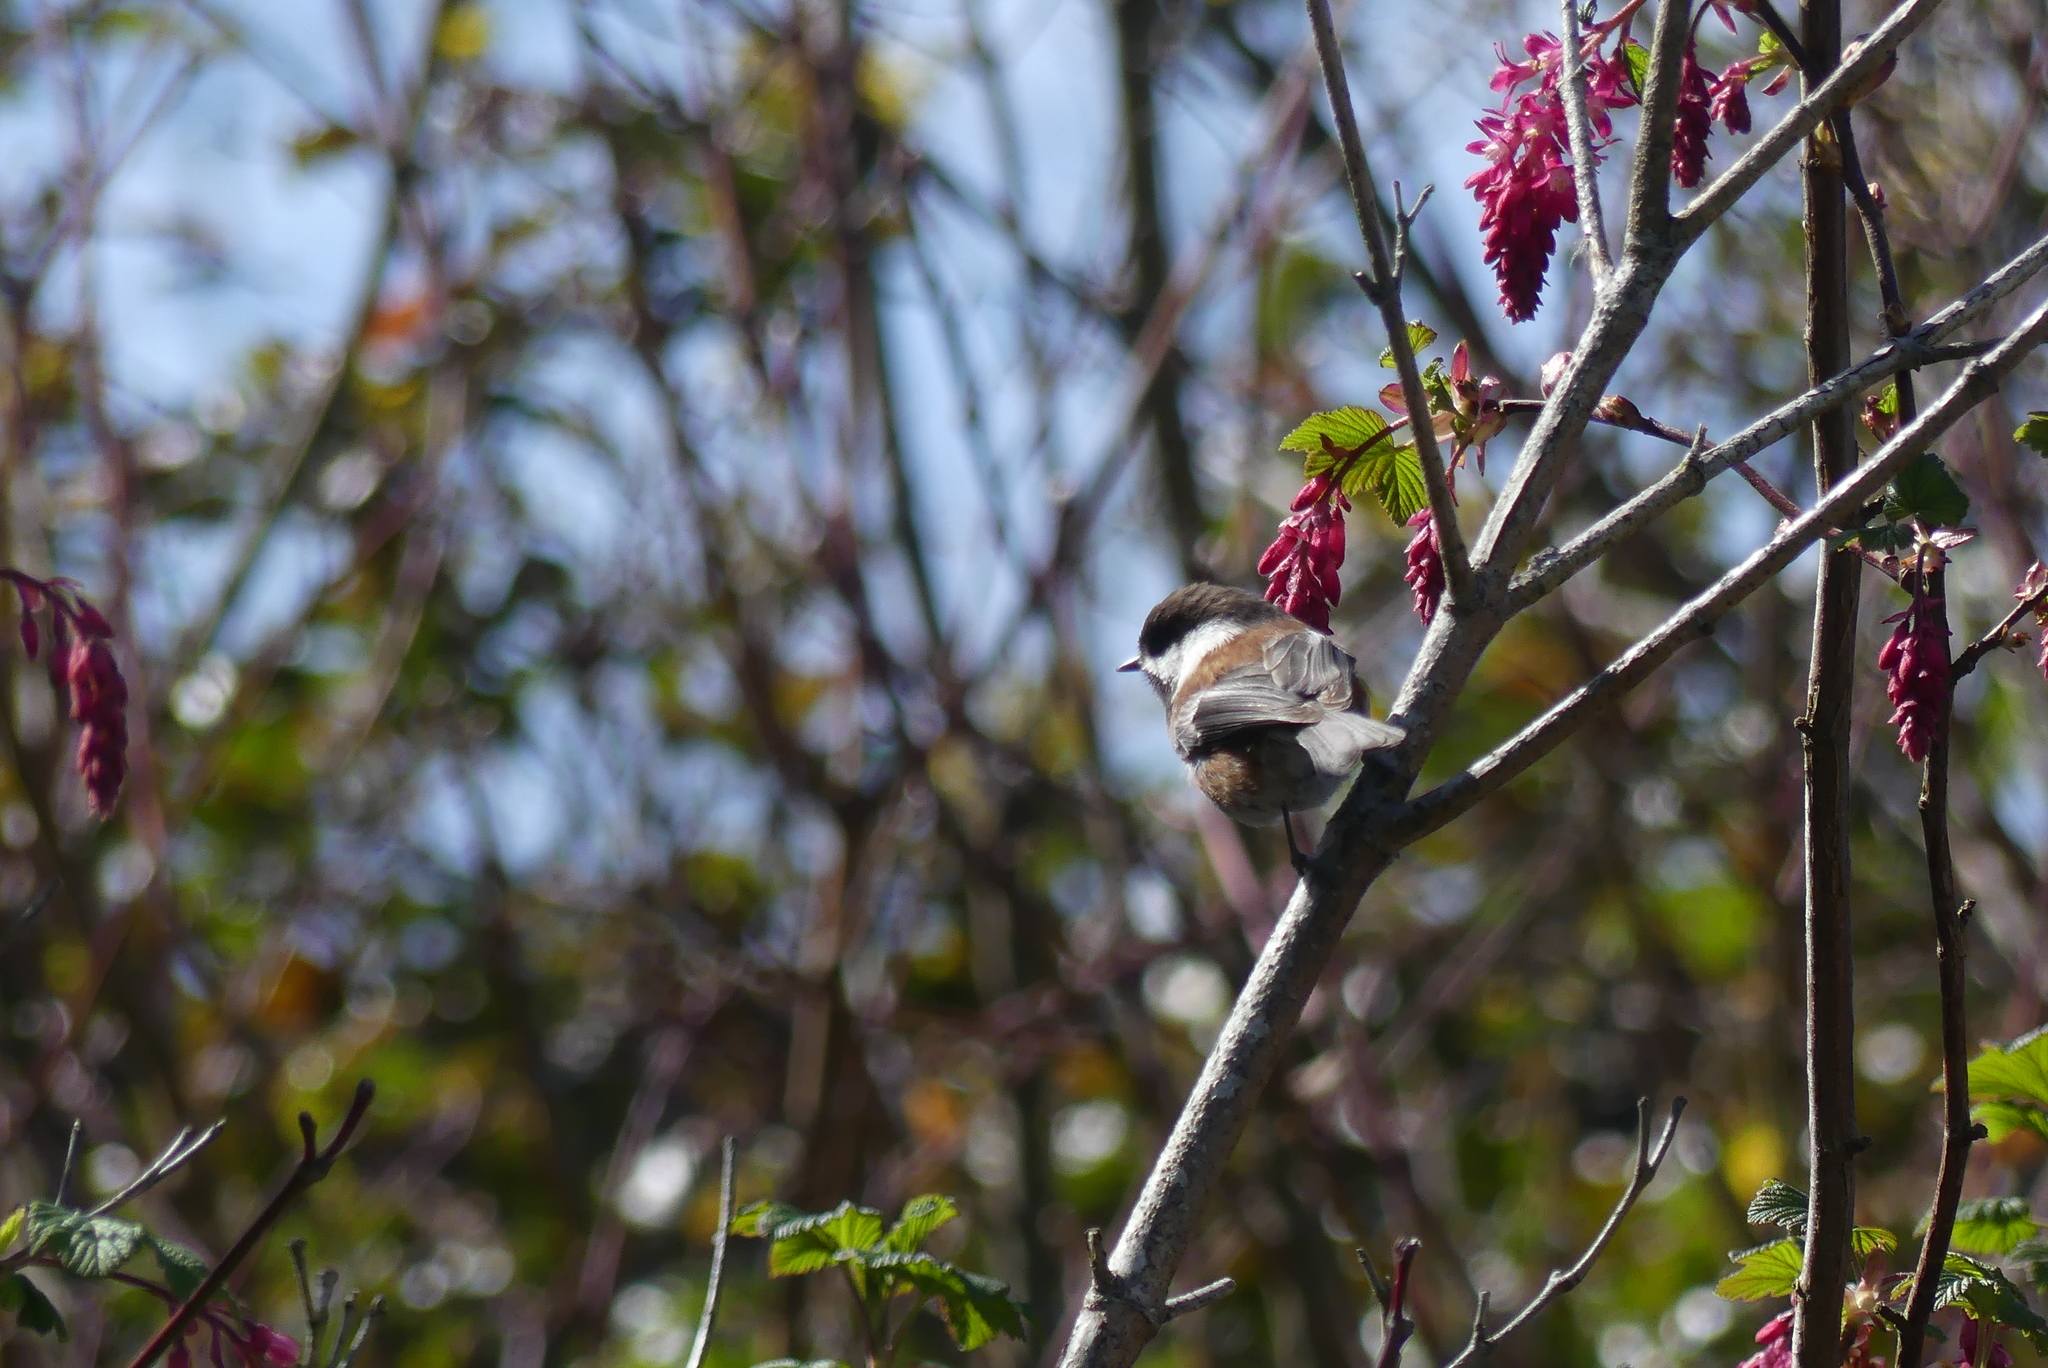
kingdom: Animalia
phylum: Chordata
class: Aves
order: Passeriformes
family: Paridae
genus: Poecile
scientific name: Poecile rufescens
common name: Chestnut-backed chickadee
